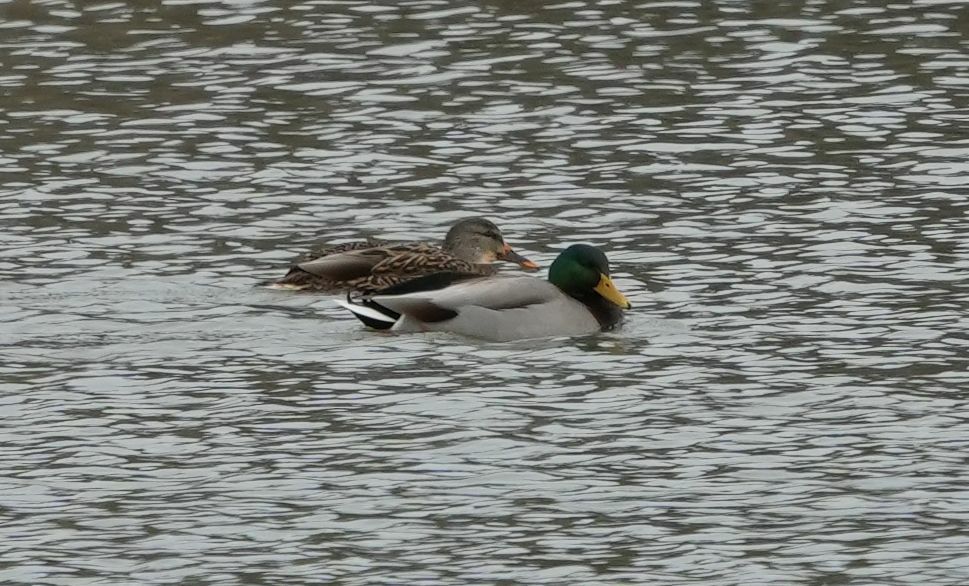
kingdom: Animalia
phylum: Chordata
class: Aves
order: Anseriformes
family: Anatidae
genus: Anas
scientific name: Anas platyrhynchos
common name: Mallard
